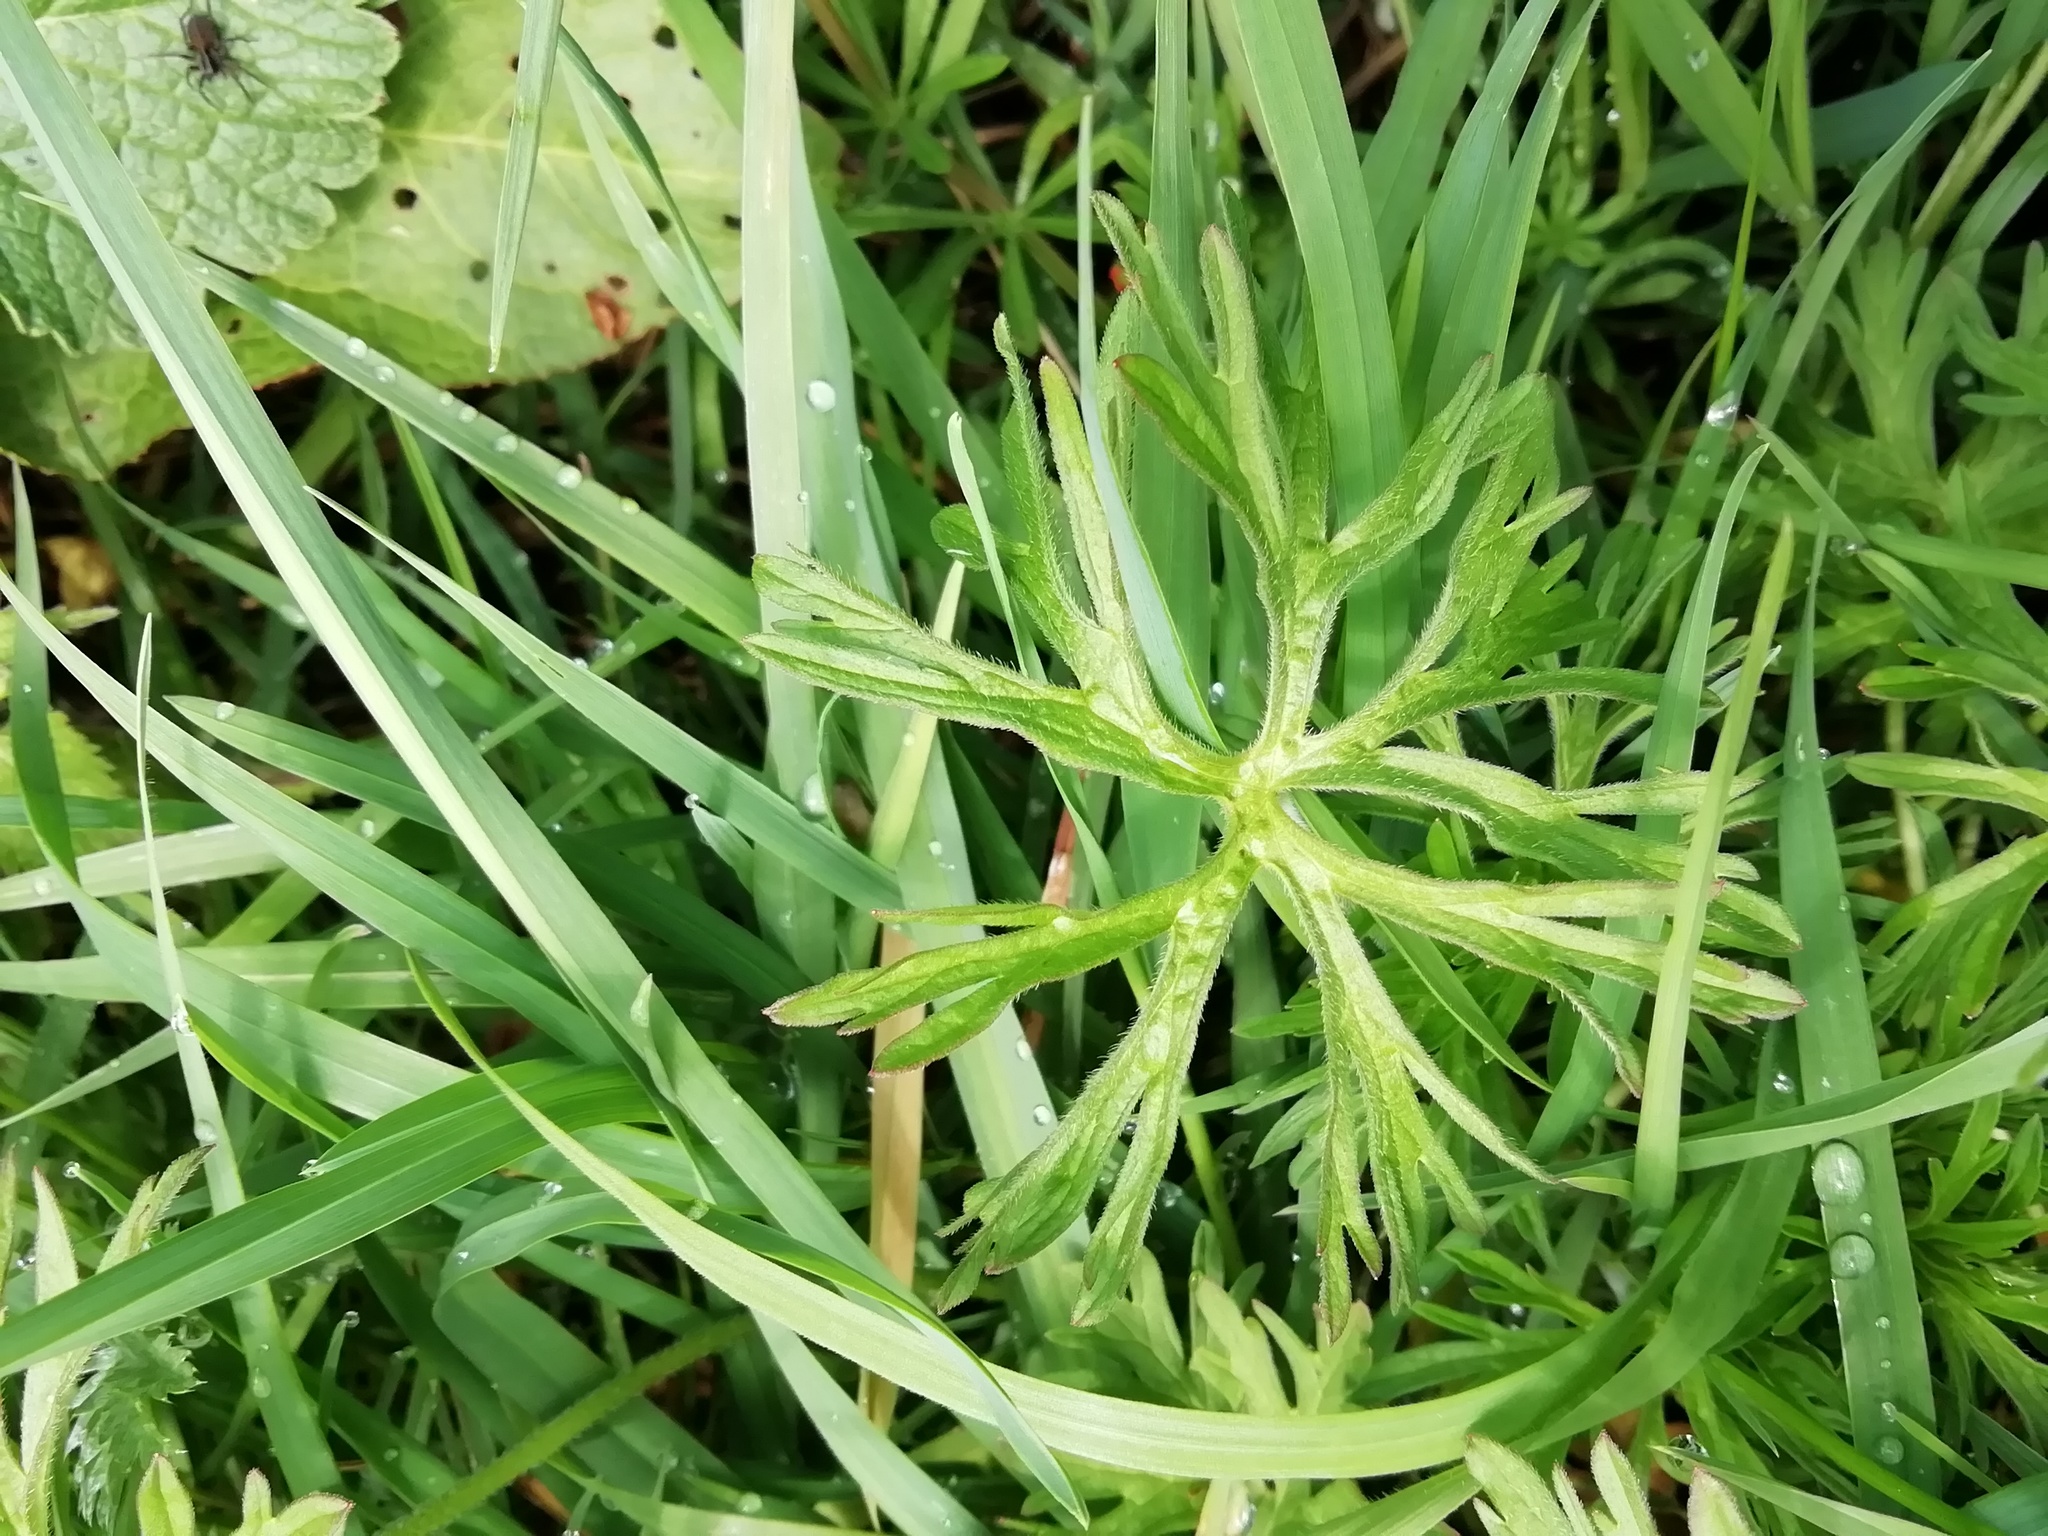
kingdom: Plantae
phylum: Tracheophyta
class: Magnoliopsida
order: Geraniales
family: Geraniaceae
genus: Geranium
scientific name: Geranium dissectum
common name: Cut-leaved crane's-bill
